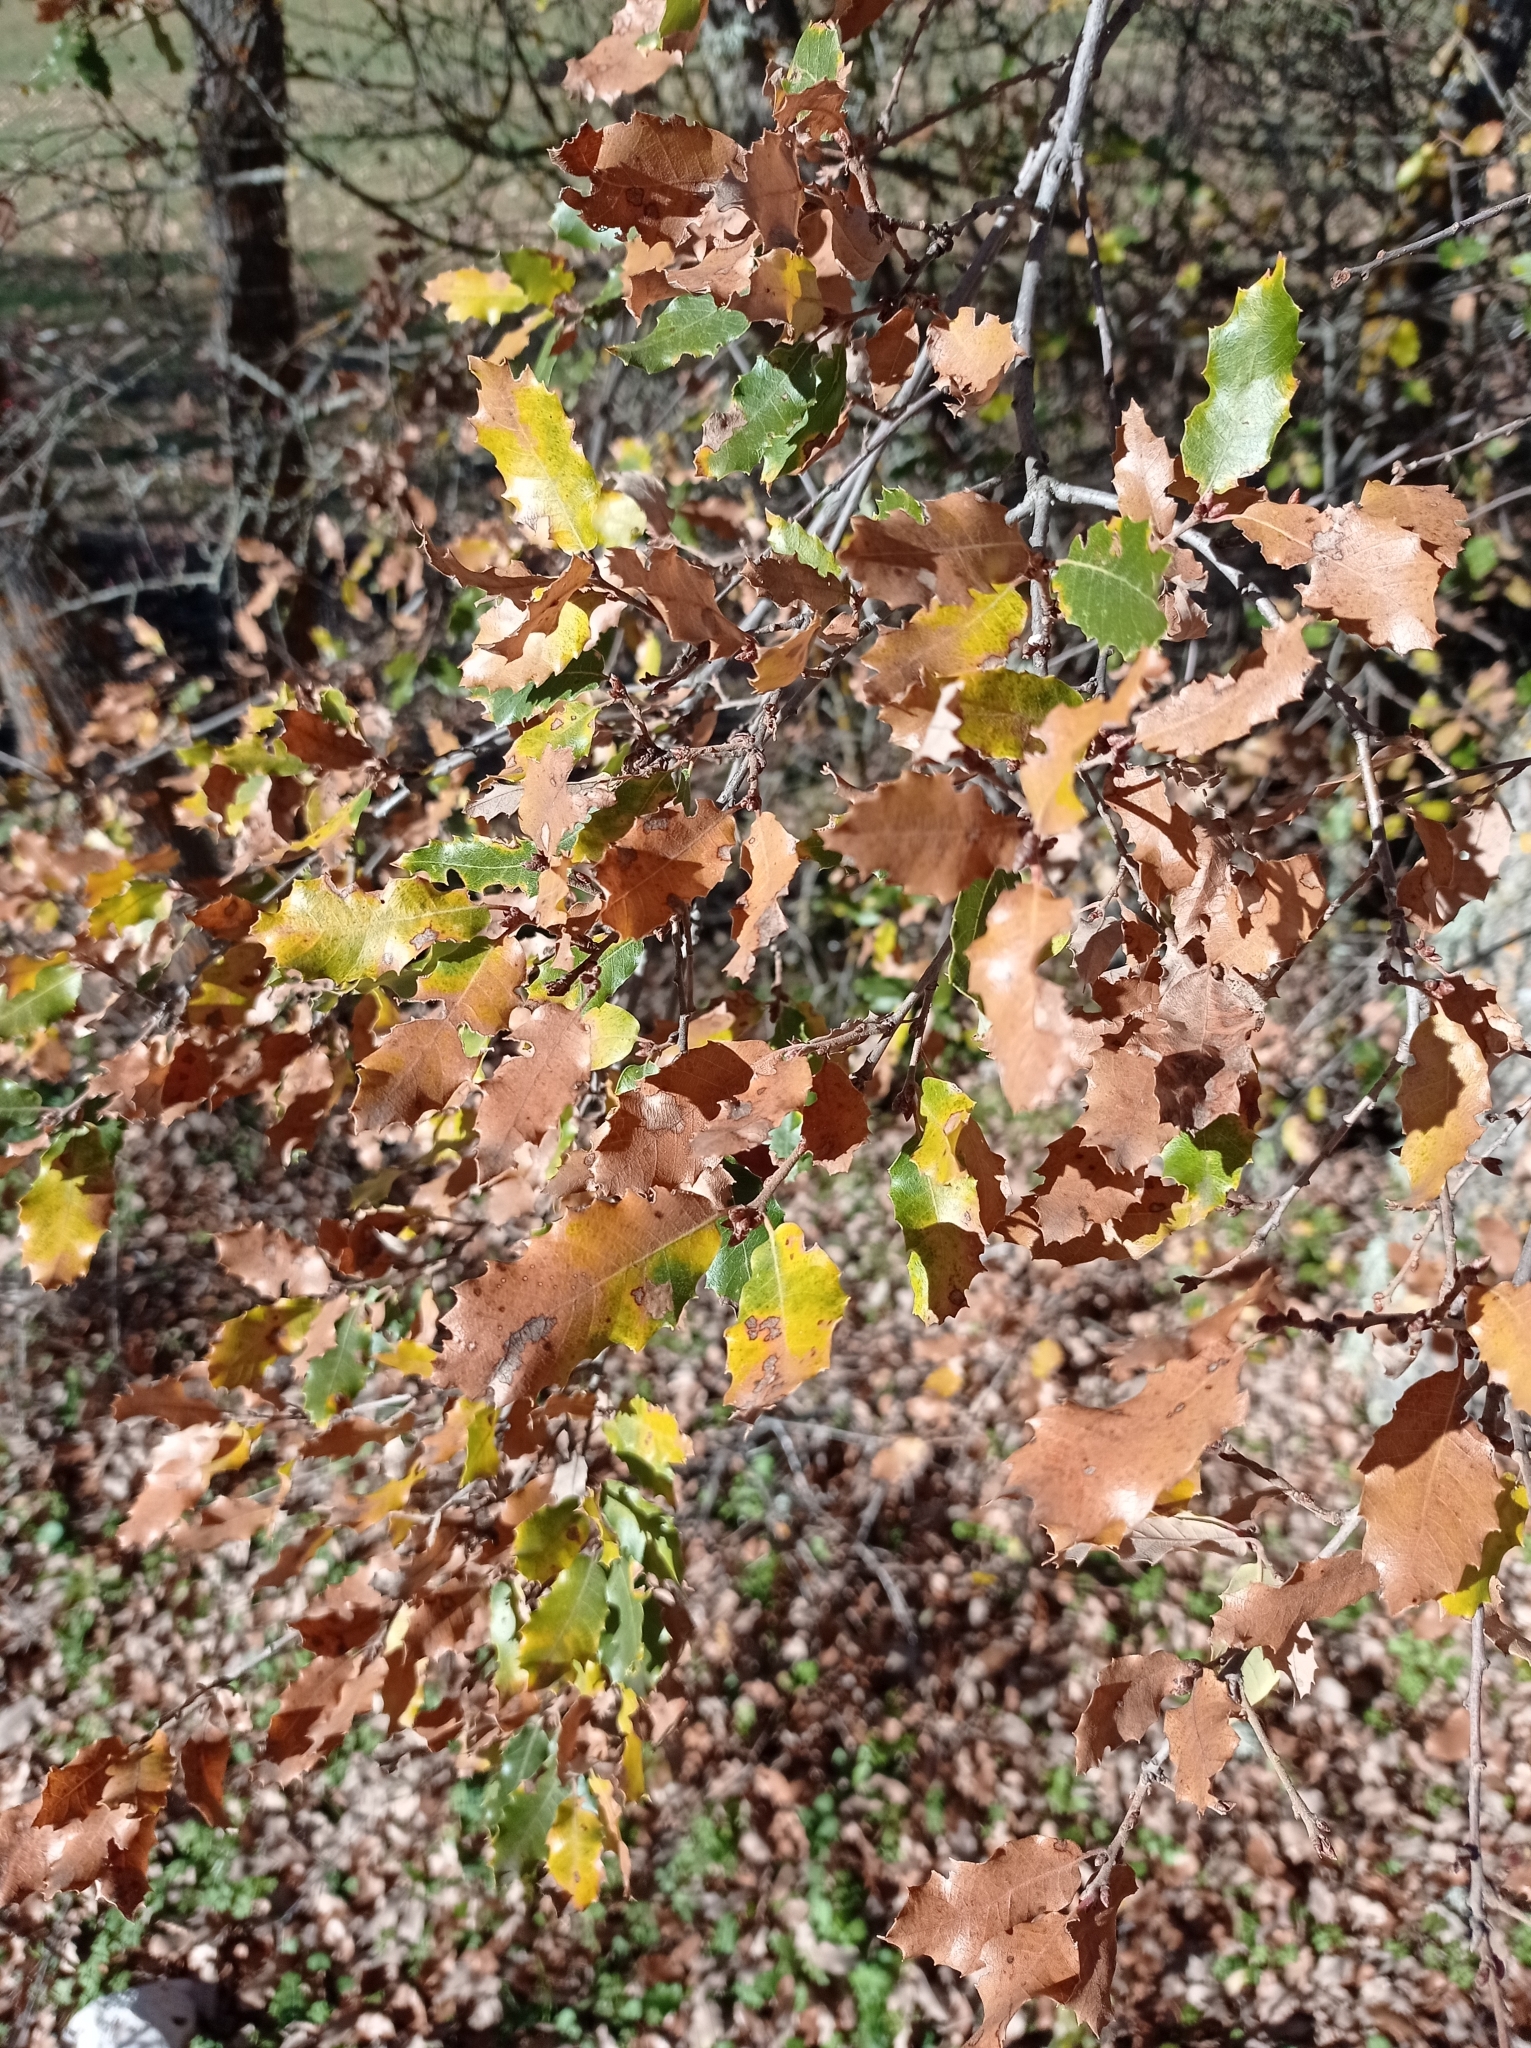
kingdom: Plantae
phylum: Tracheophyta
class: Magnoliopsida
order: Fagales
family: Fagaceae
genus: Quercus
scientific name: Quercus faginea
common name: Gall oak tree
